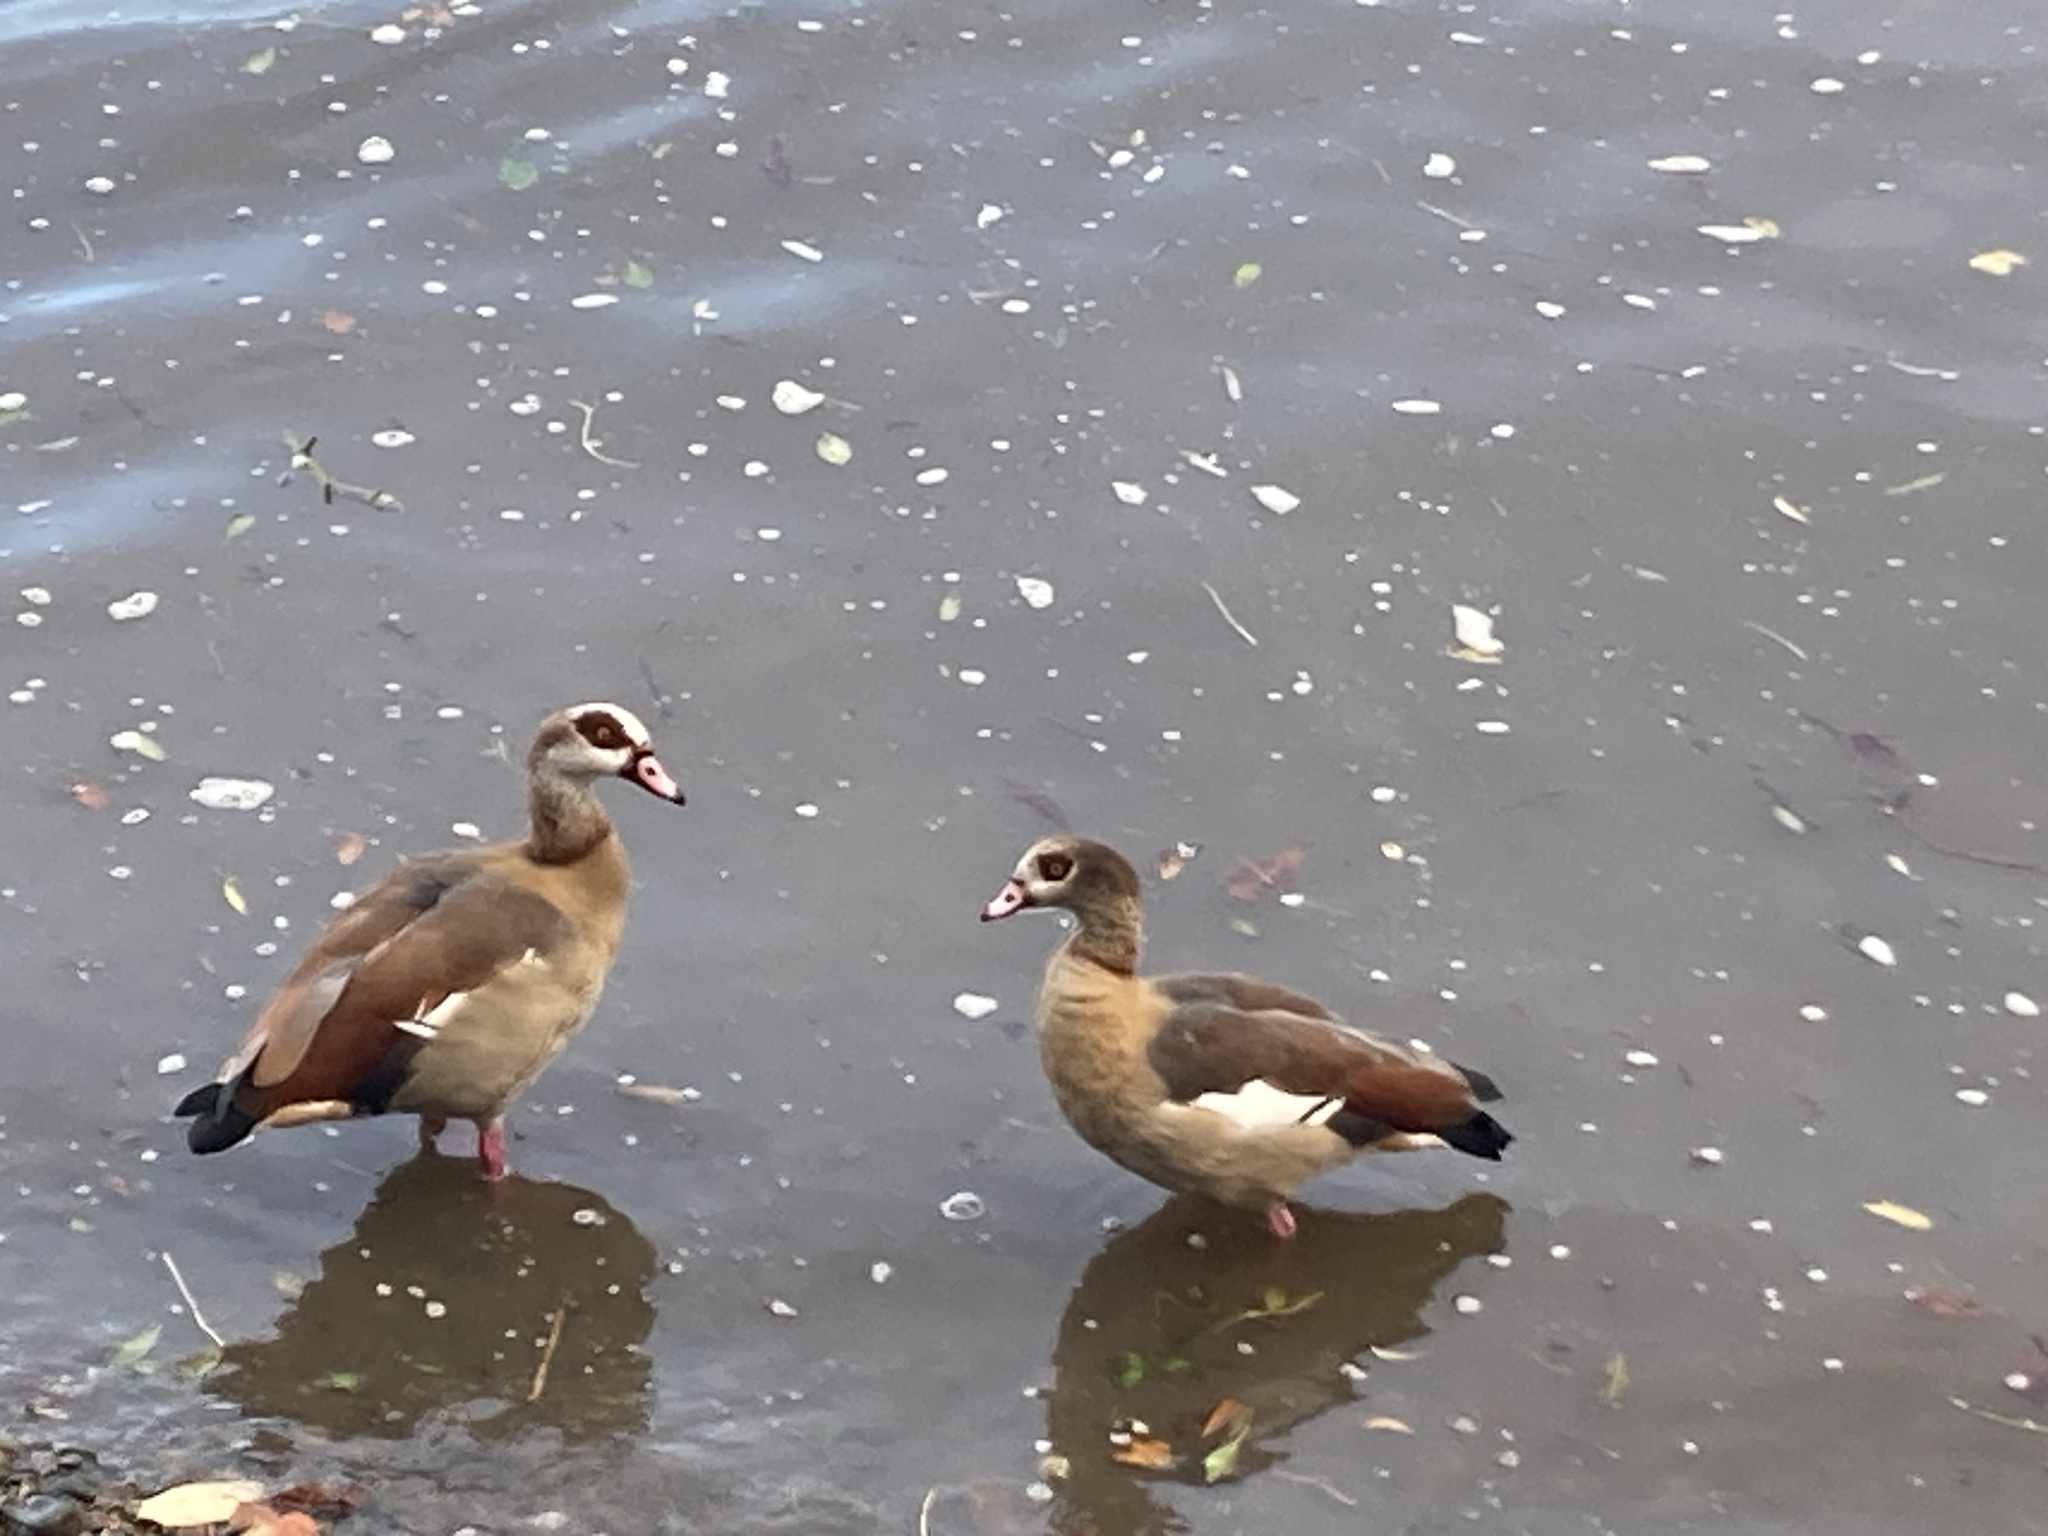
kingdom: Animalia
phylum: Chordata
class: Aves
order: Anseriformes
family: Anatidae
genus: Alopochen
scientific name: Alopochen aegyptiaca
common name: Egyptian goose
